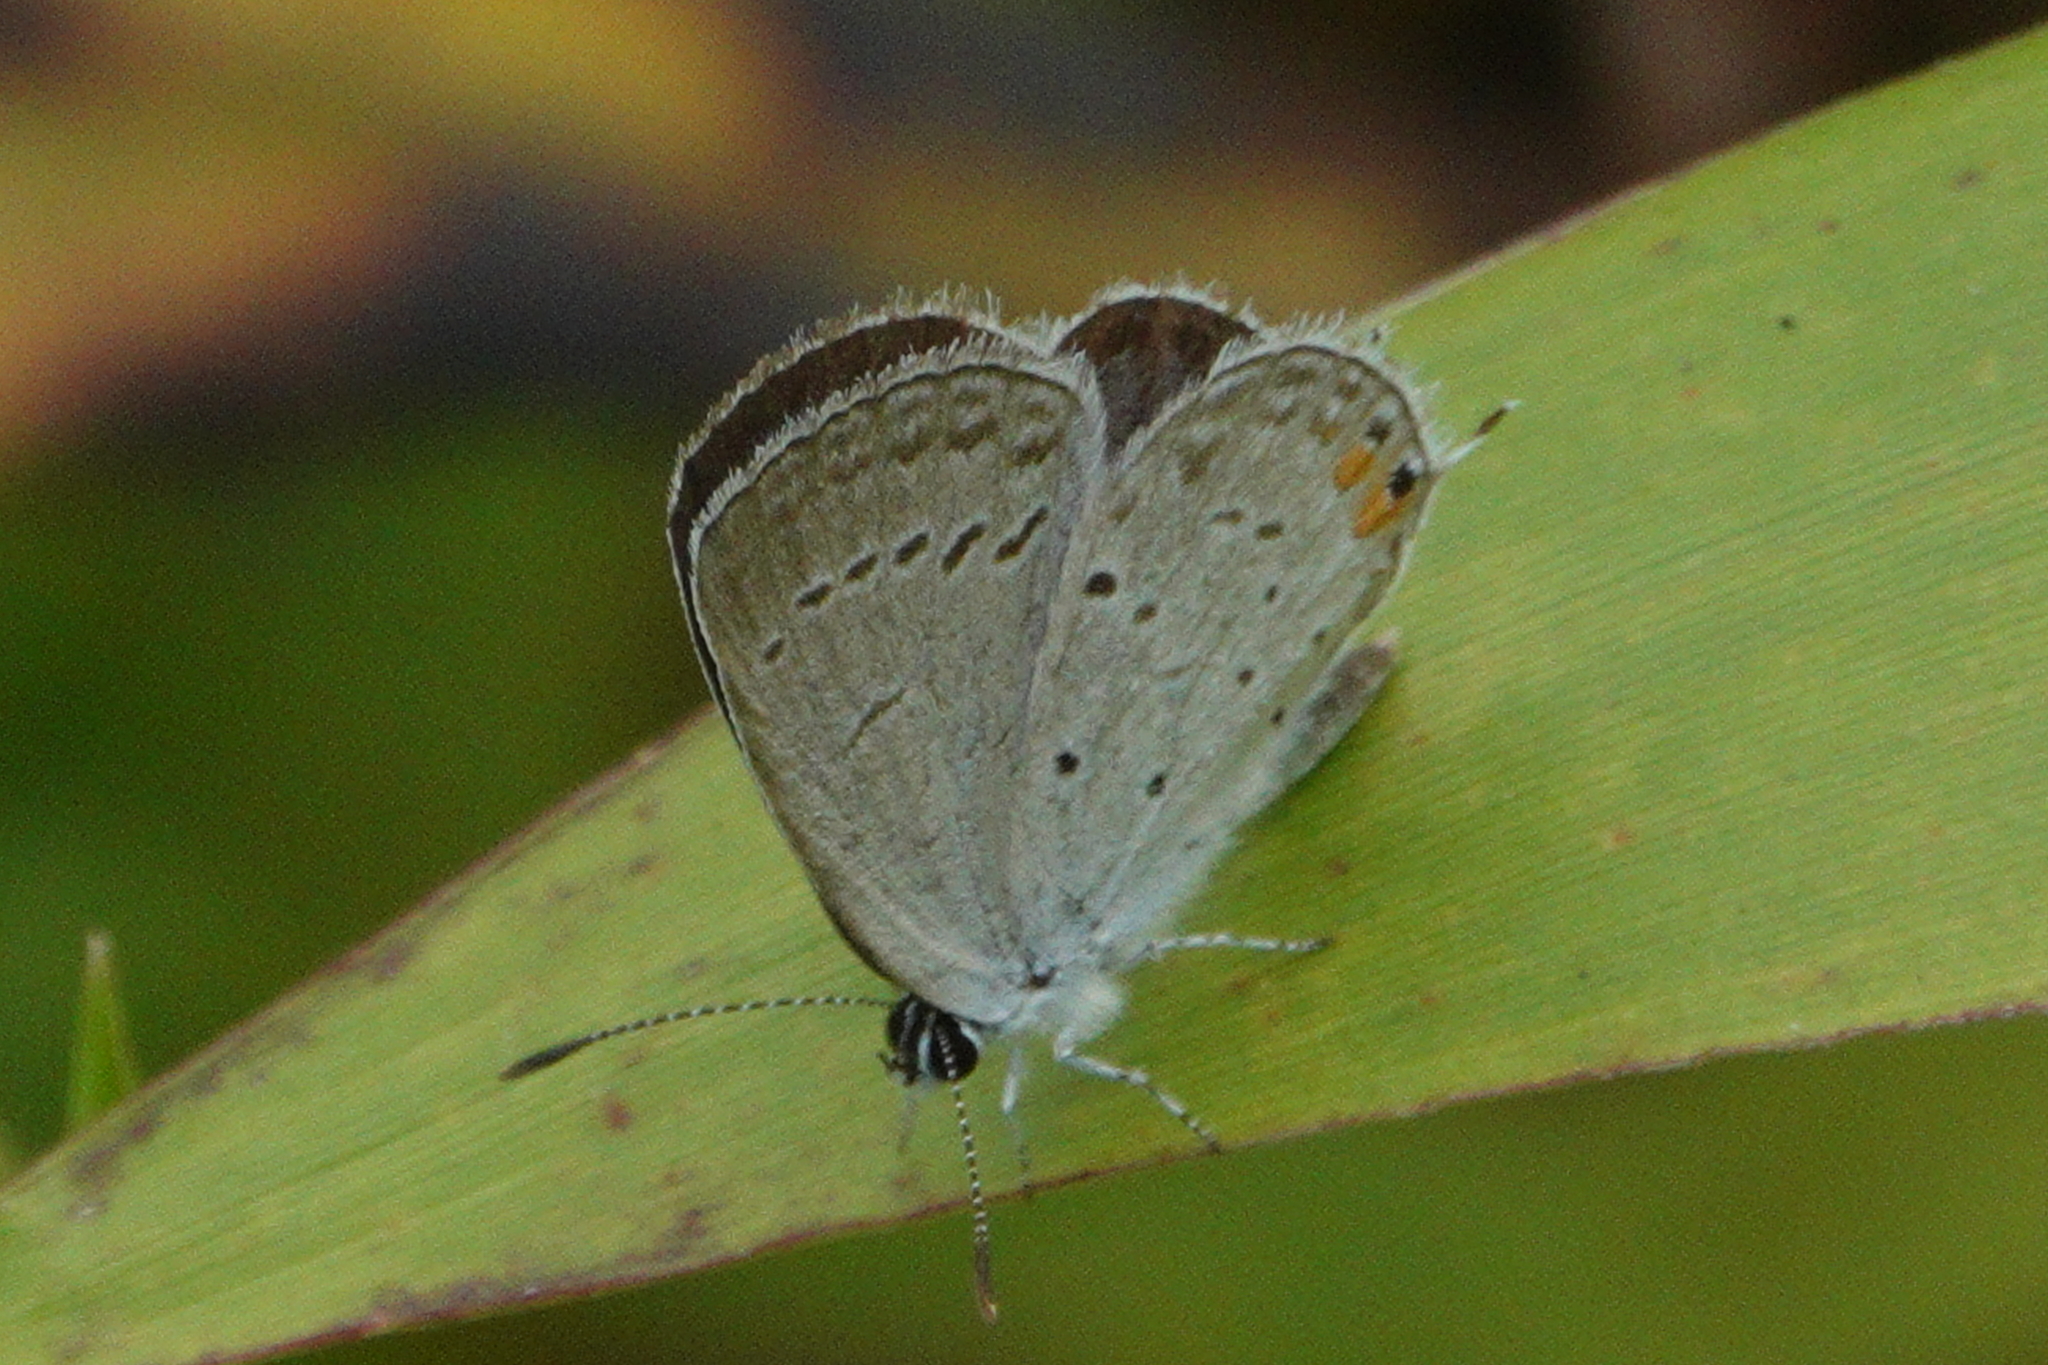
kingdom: Animalia
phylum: Arthropoda
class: Insecta
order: Lepidoptera
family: Lycaenidae
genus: Elkalyce
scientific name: Elkalyce comyntas
